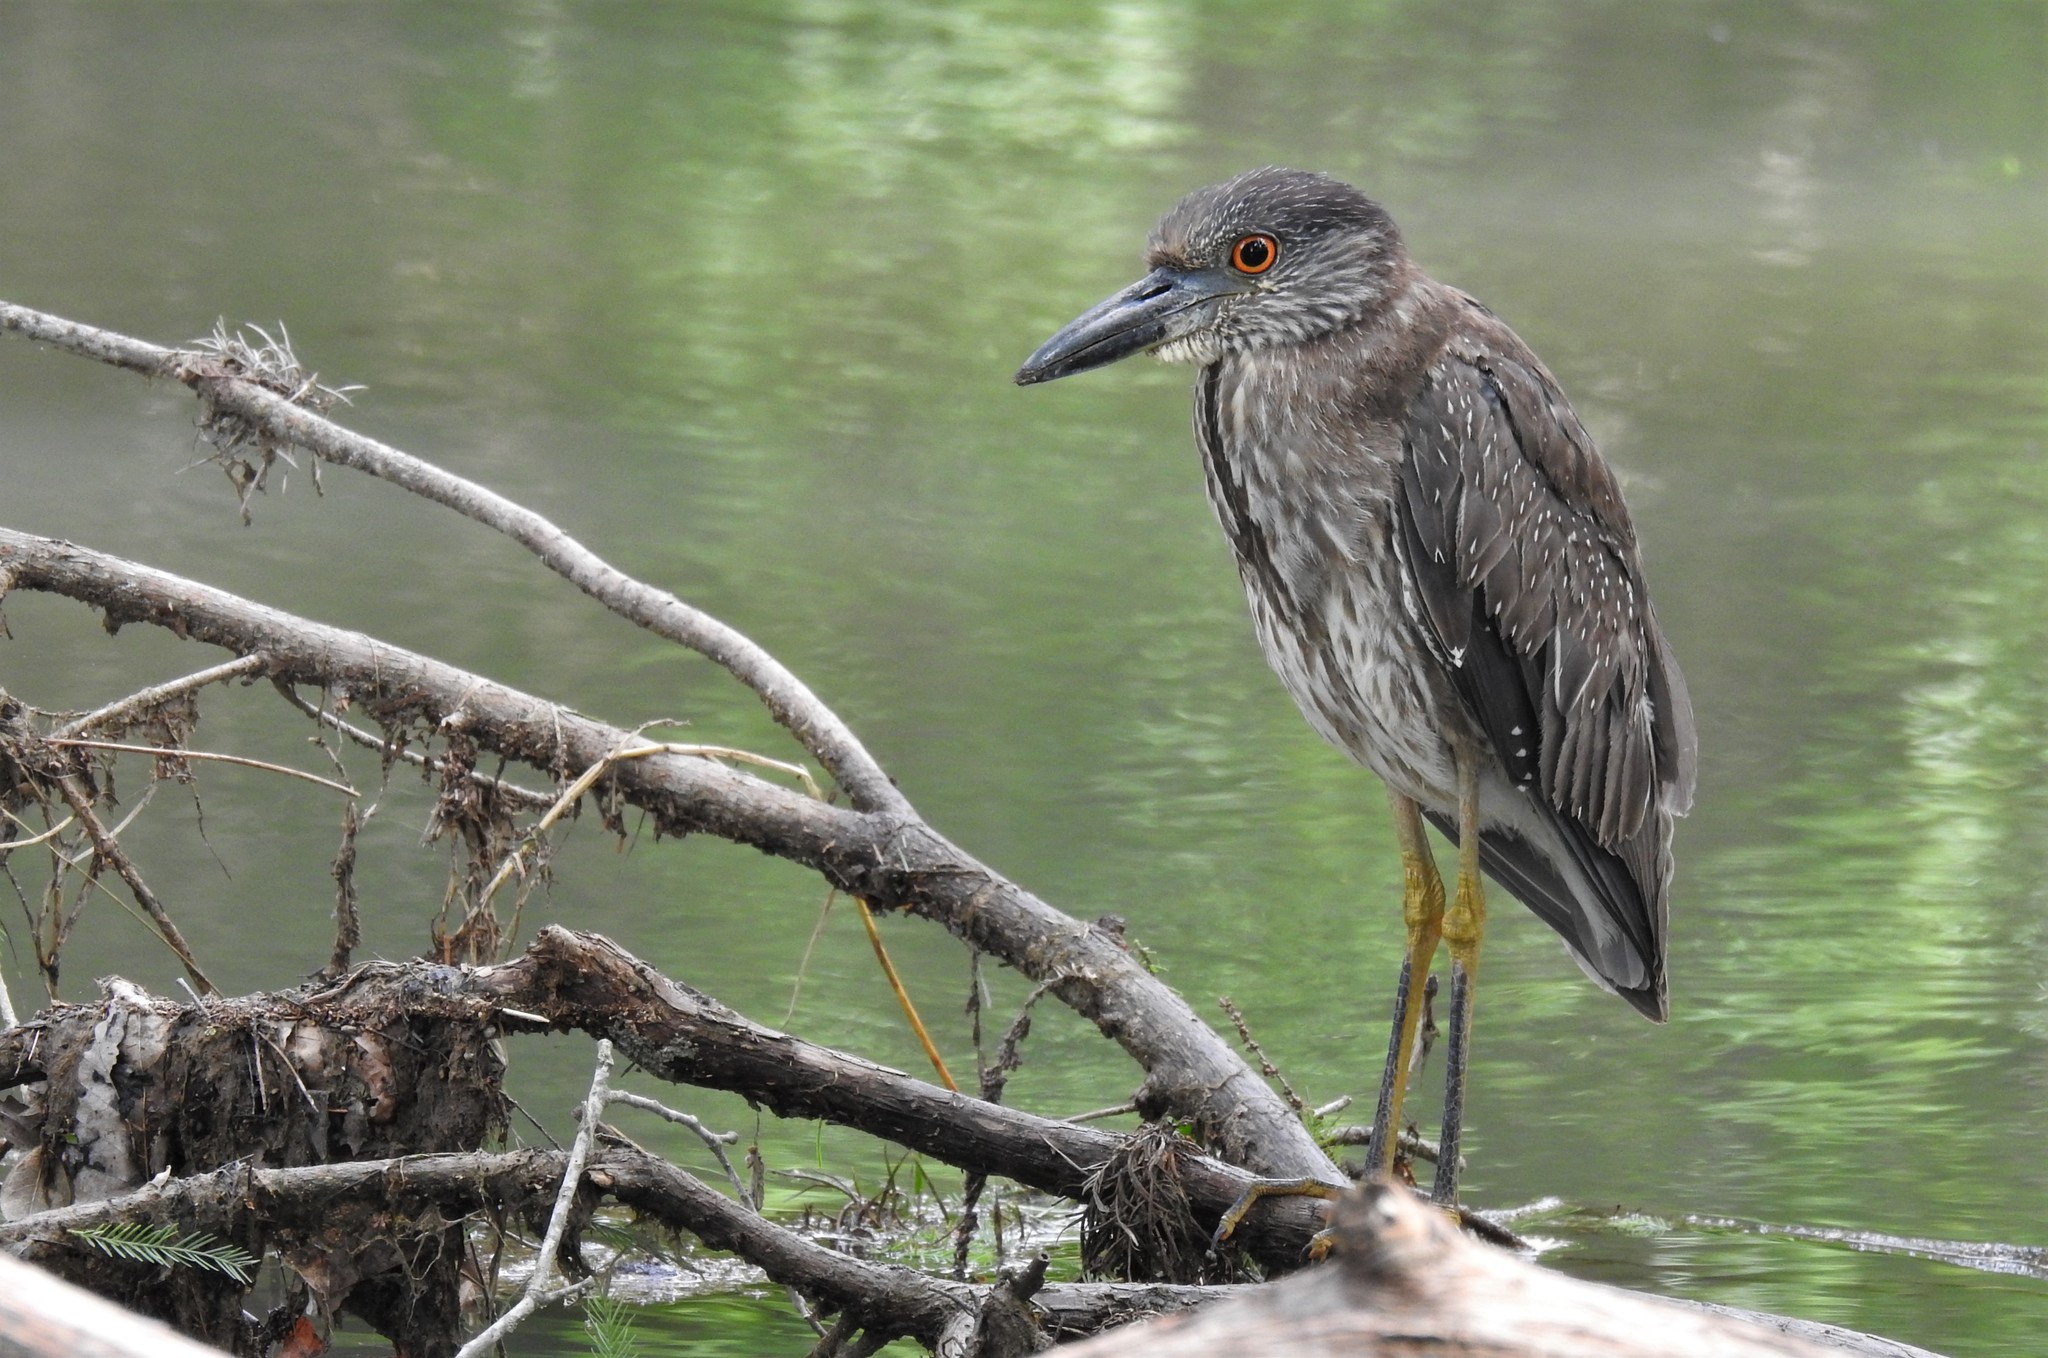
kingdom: Animalia
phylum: Chordata
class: Aves
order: Pelecaniformes
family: Ardeidae
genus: Nyctanassa
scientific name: Nyctanassa violacea
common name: Yellow-crowned night heron
